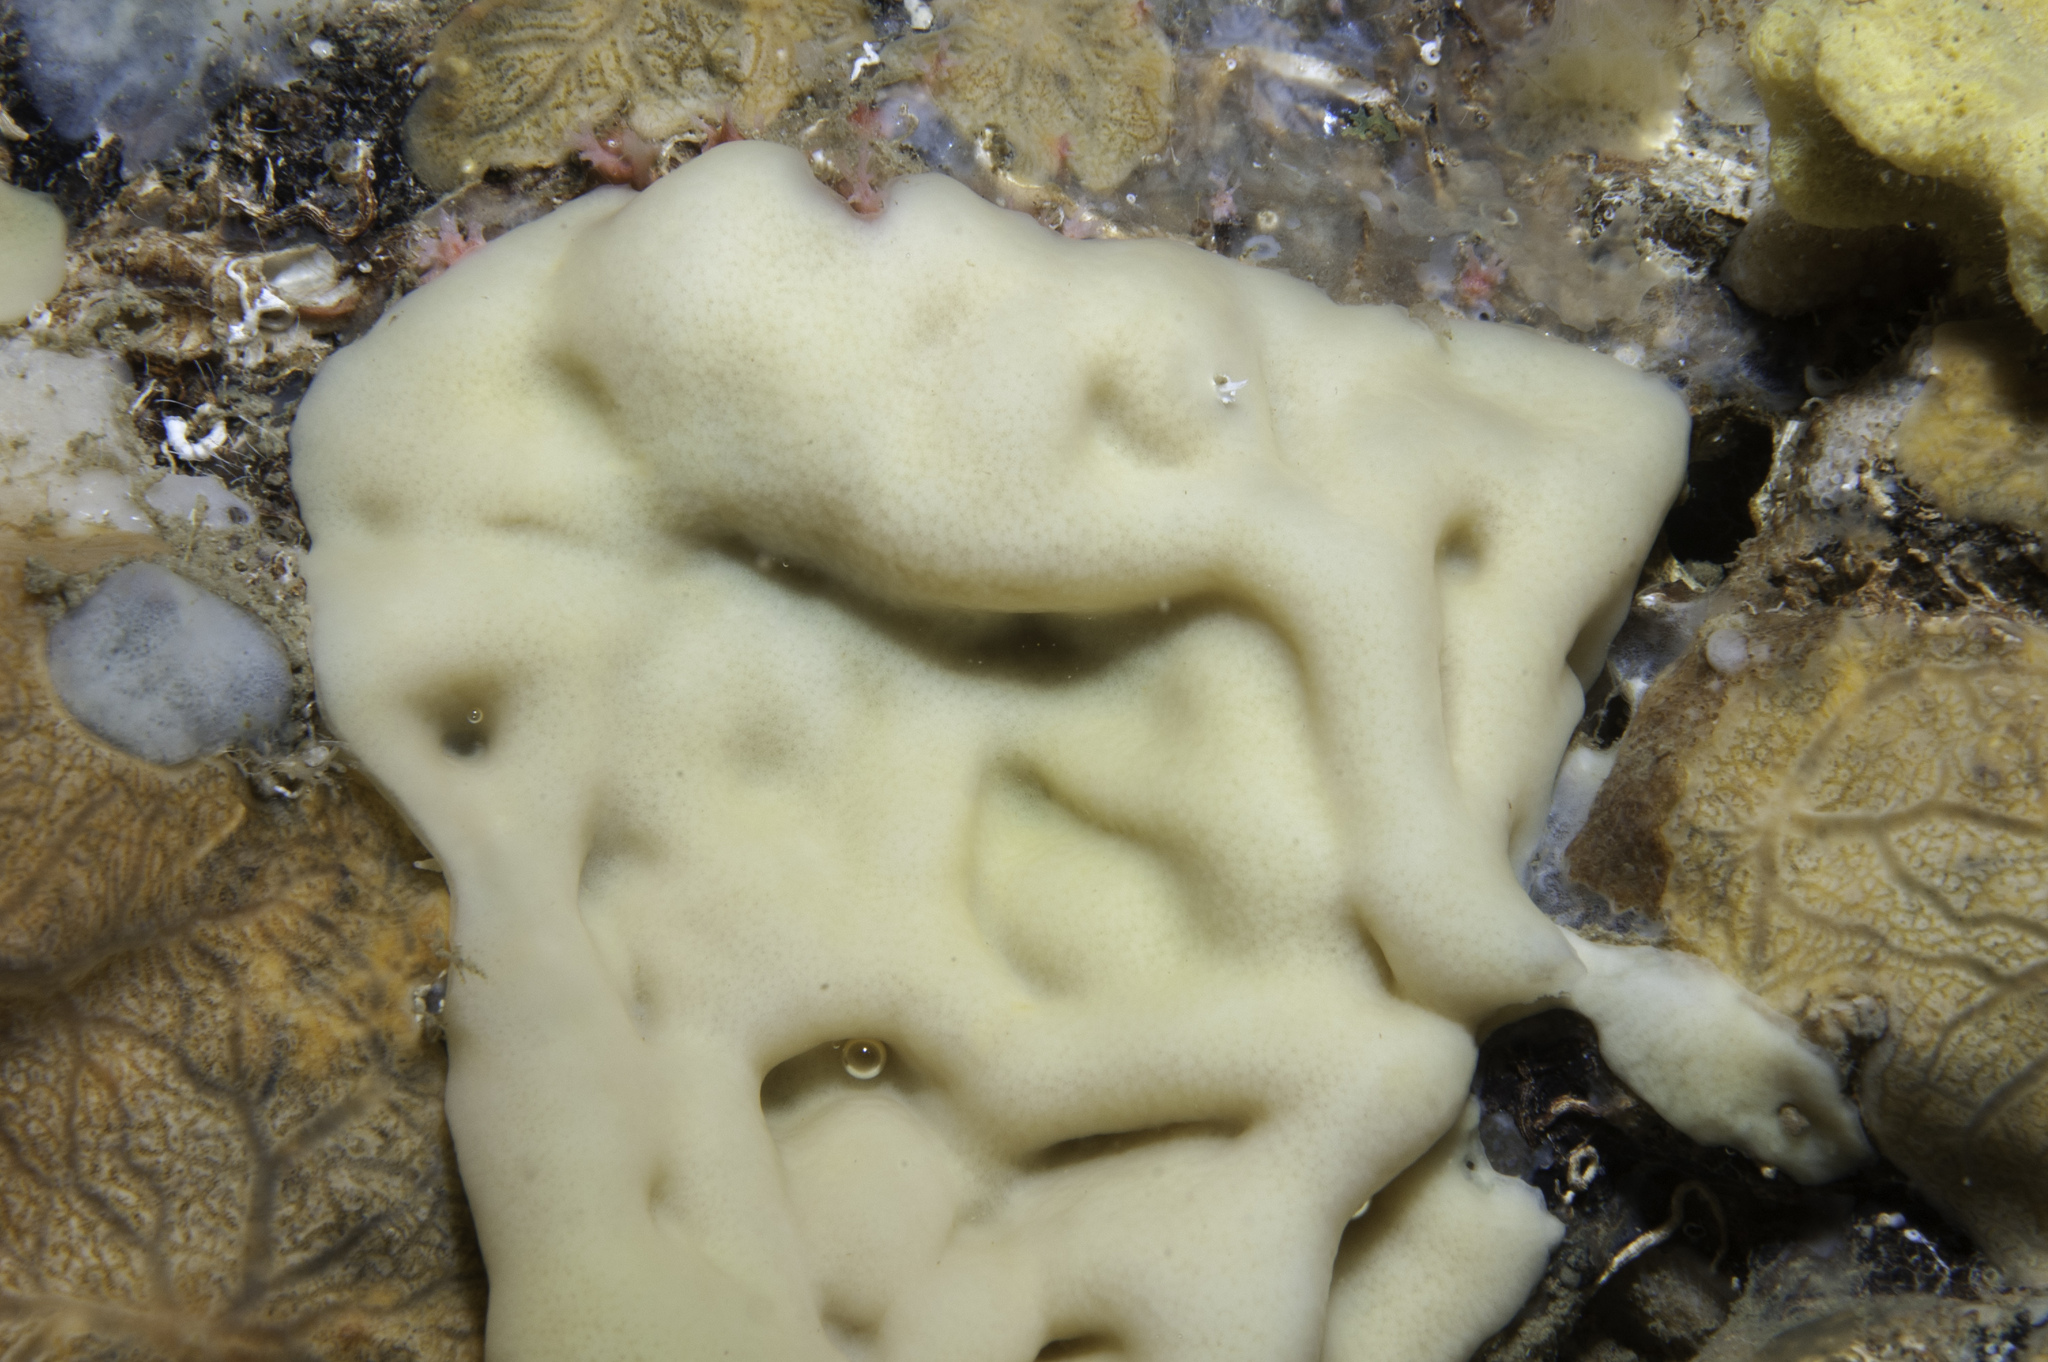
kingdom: Animalia
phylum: Porifera
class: Homoscleromorpha
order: Homosclerophorida
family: Plakinidae
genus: Plakina
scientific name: Plakina jani
